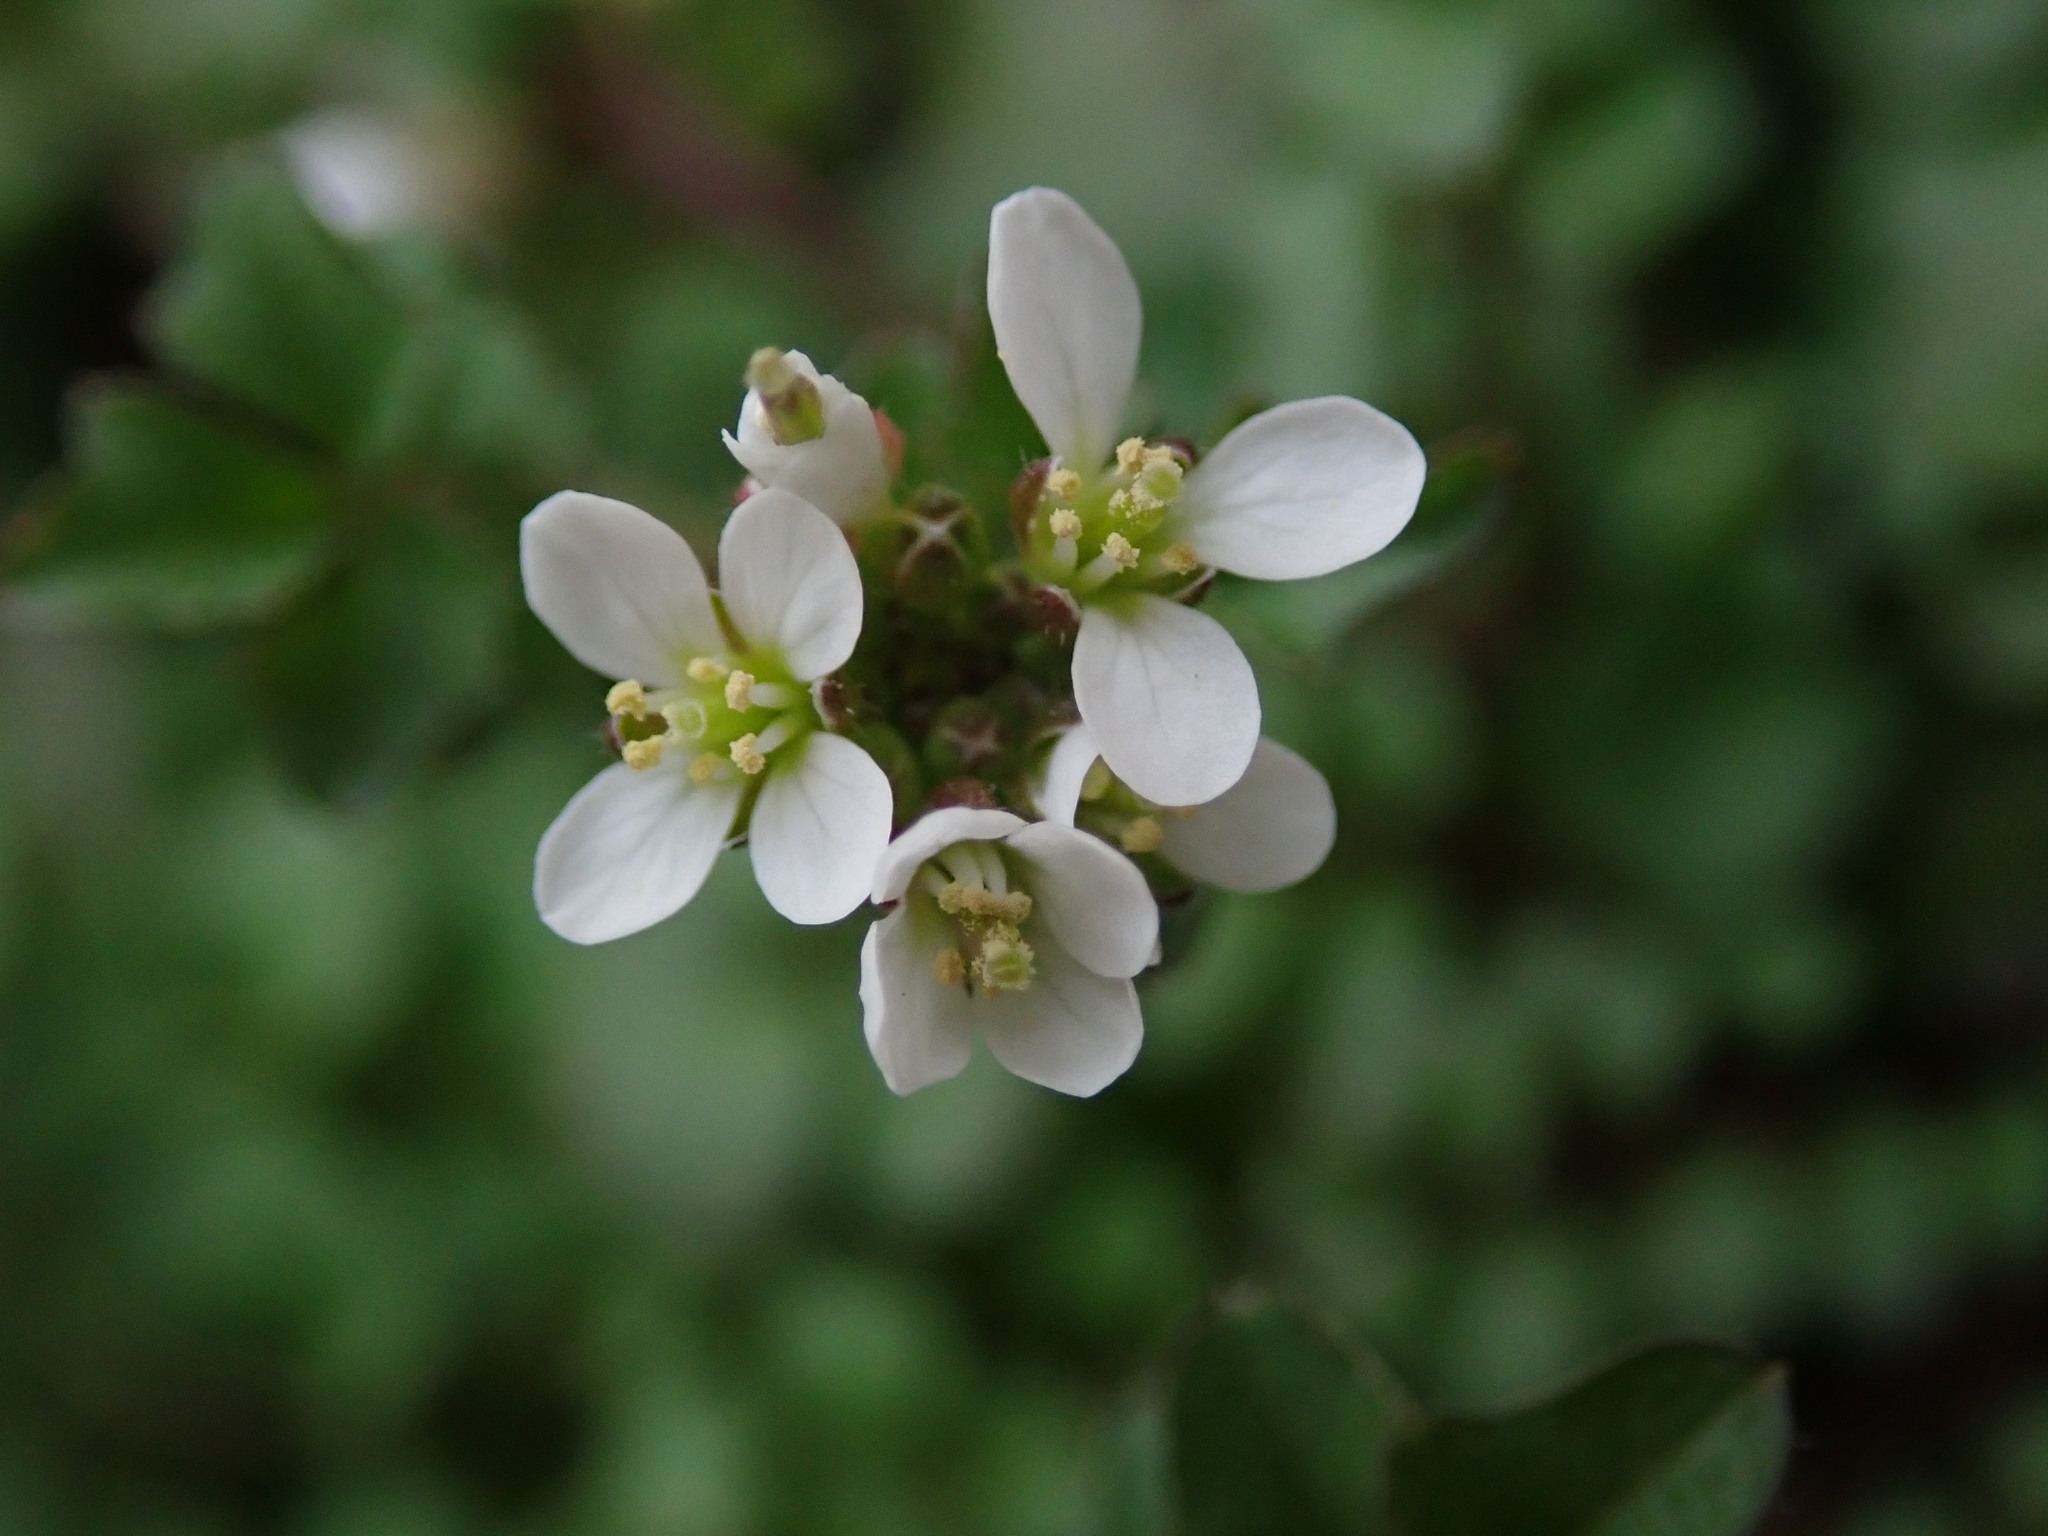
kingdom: Plantae
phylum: Tracheophyta
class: Magnoliopsida
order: Brassicales
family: Brassicaceae
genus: Cardamine
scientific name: Cardamine flexuosa
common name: Woodland bittercress
